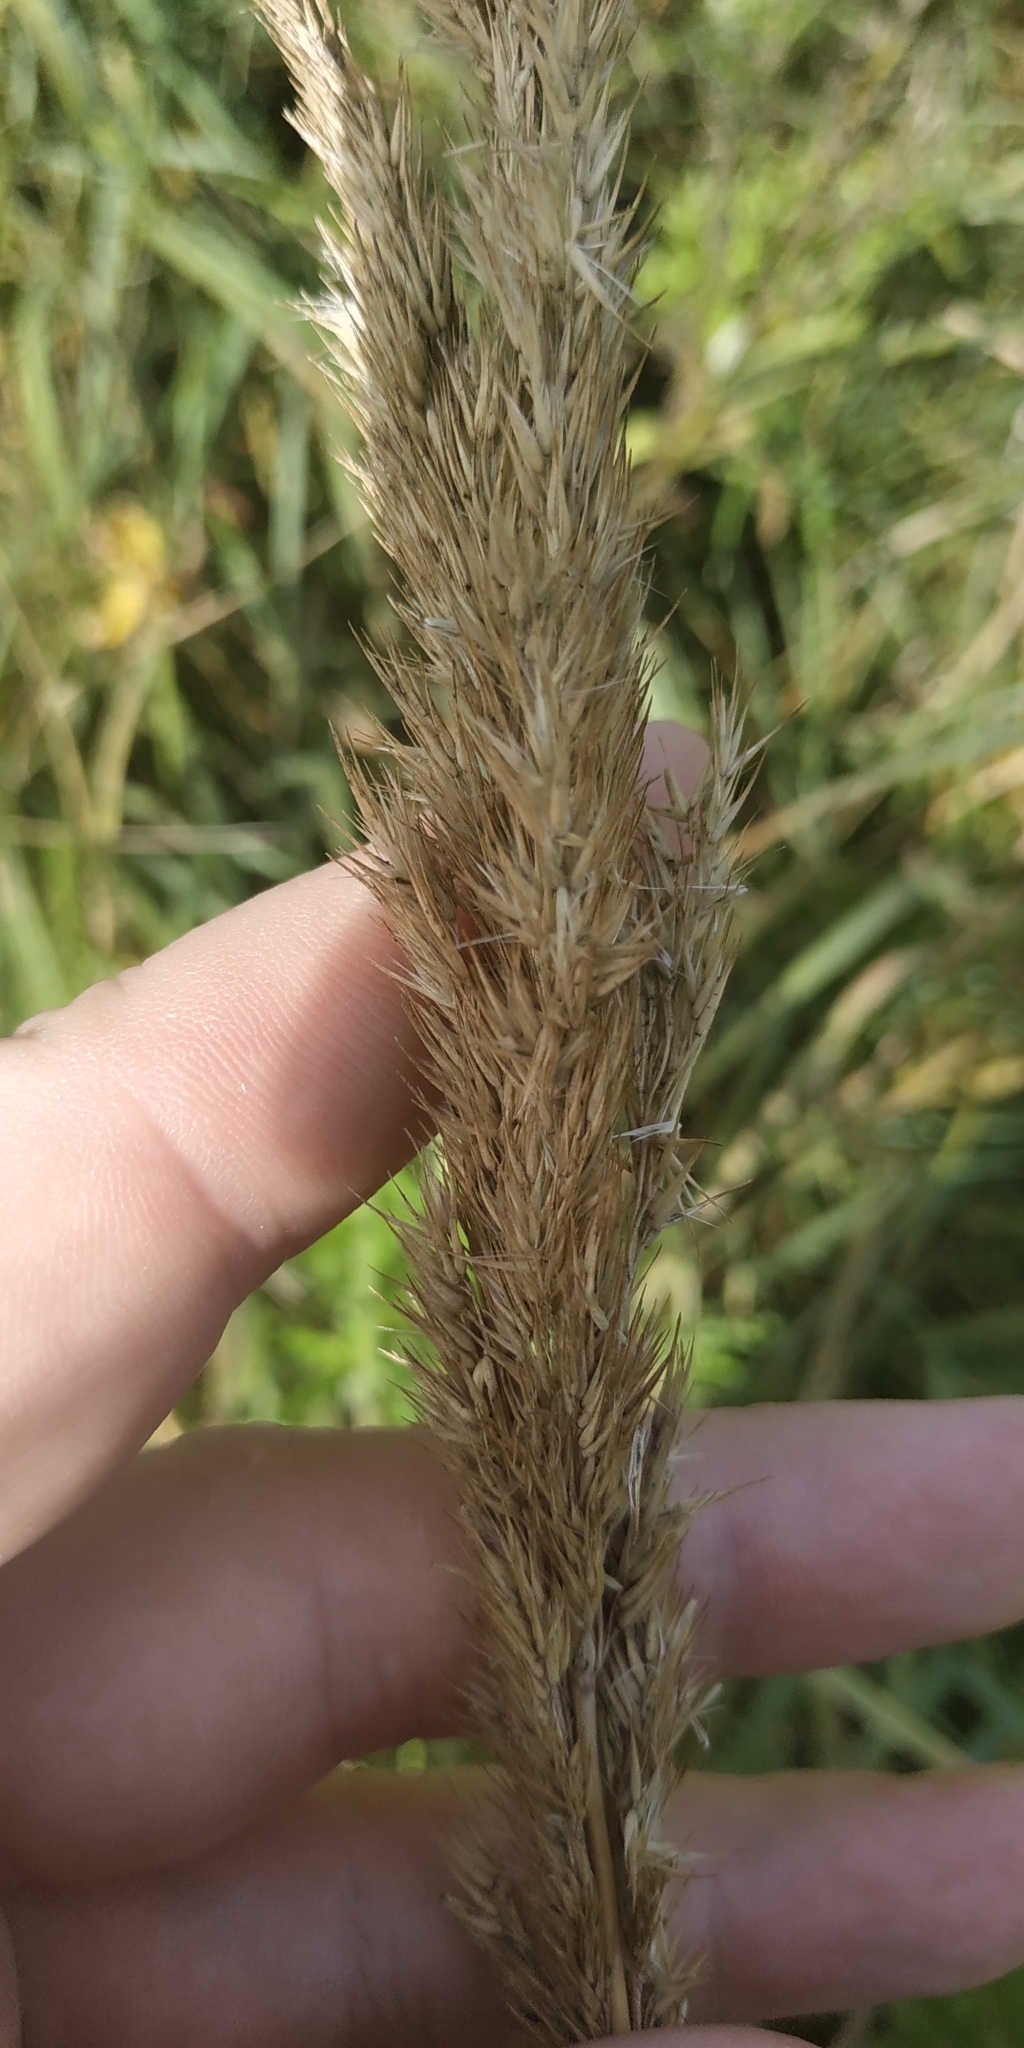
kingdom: Plantae
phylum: Tracheophyta
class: Liliopsida
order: Poales
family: Poaceae
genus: Calamagrostis
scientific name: Calamagrostis epigejos
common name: Wood small-reed
